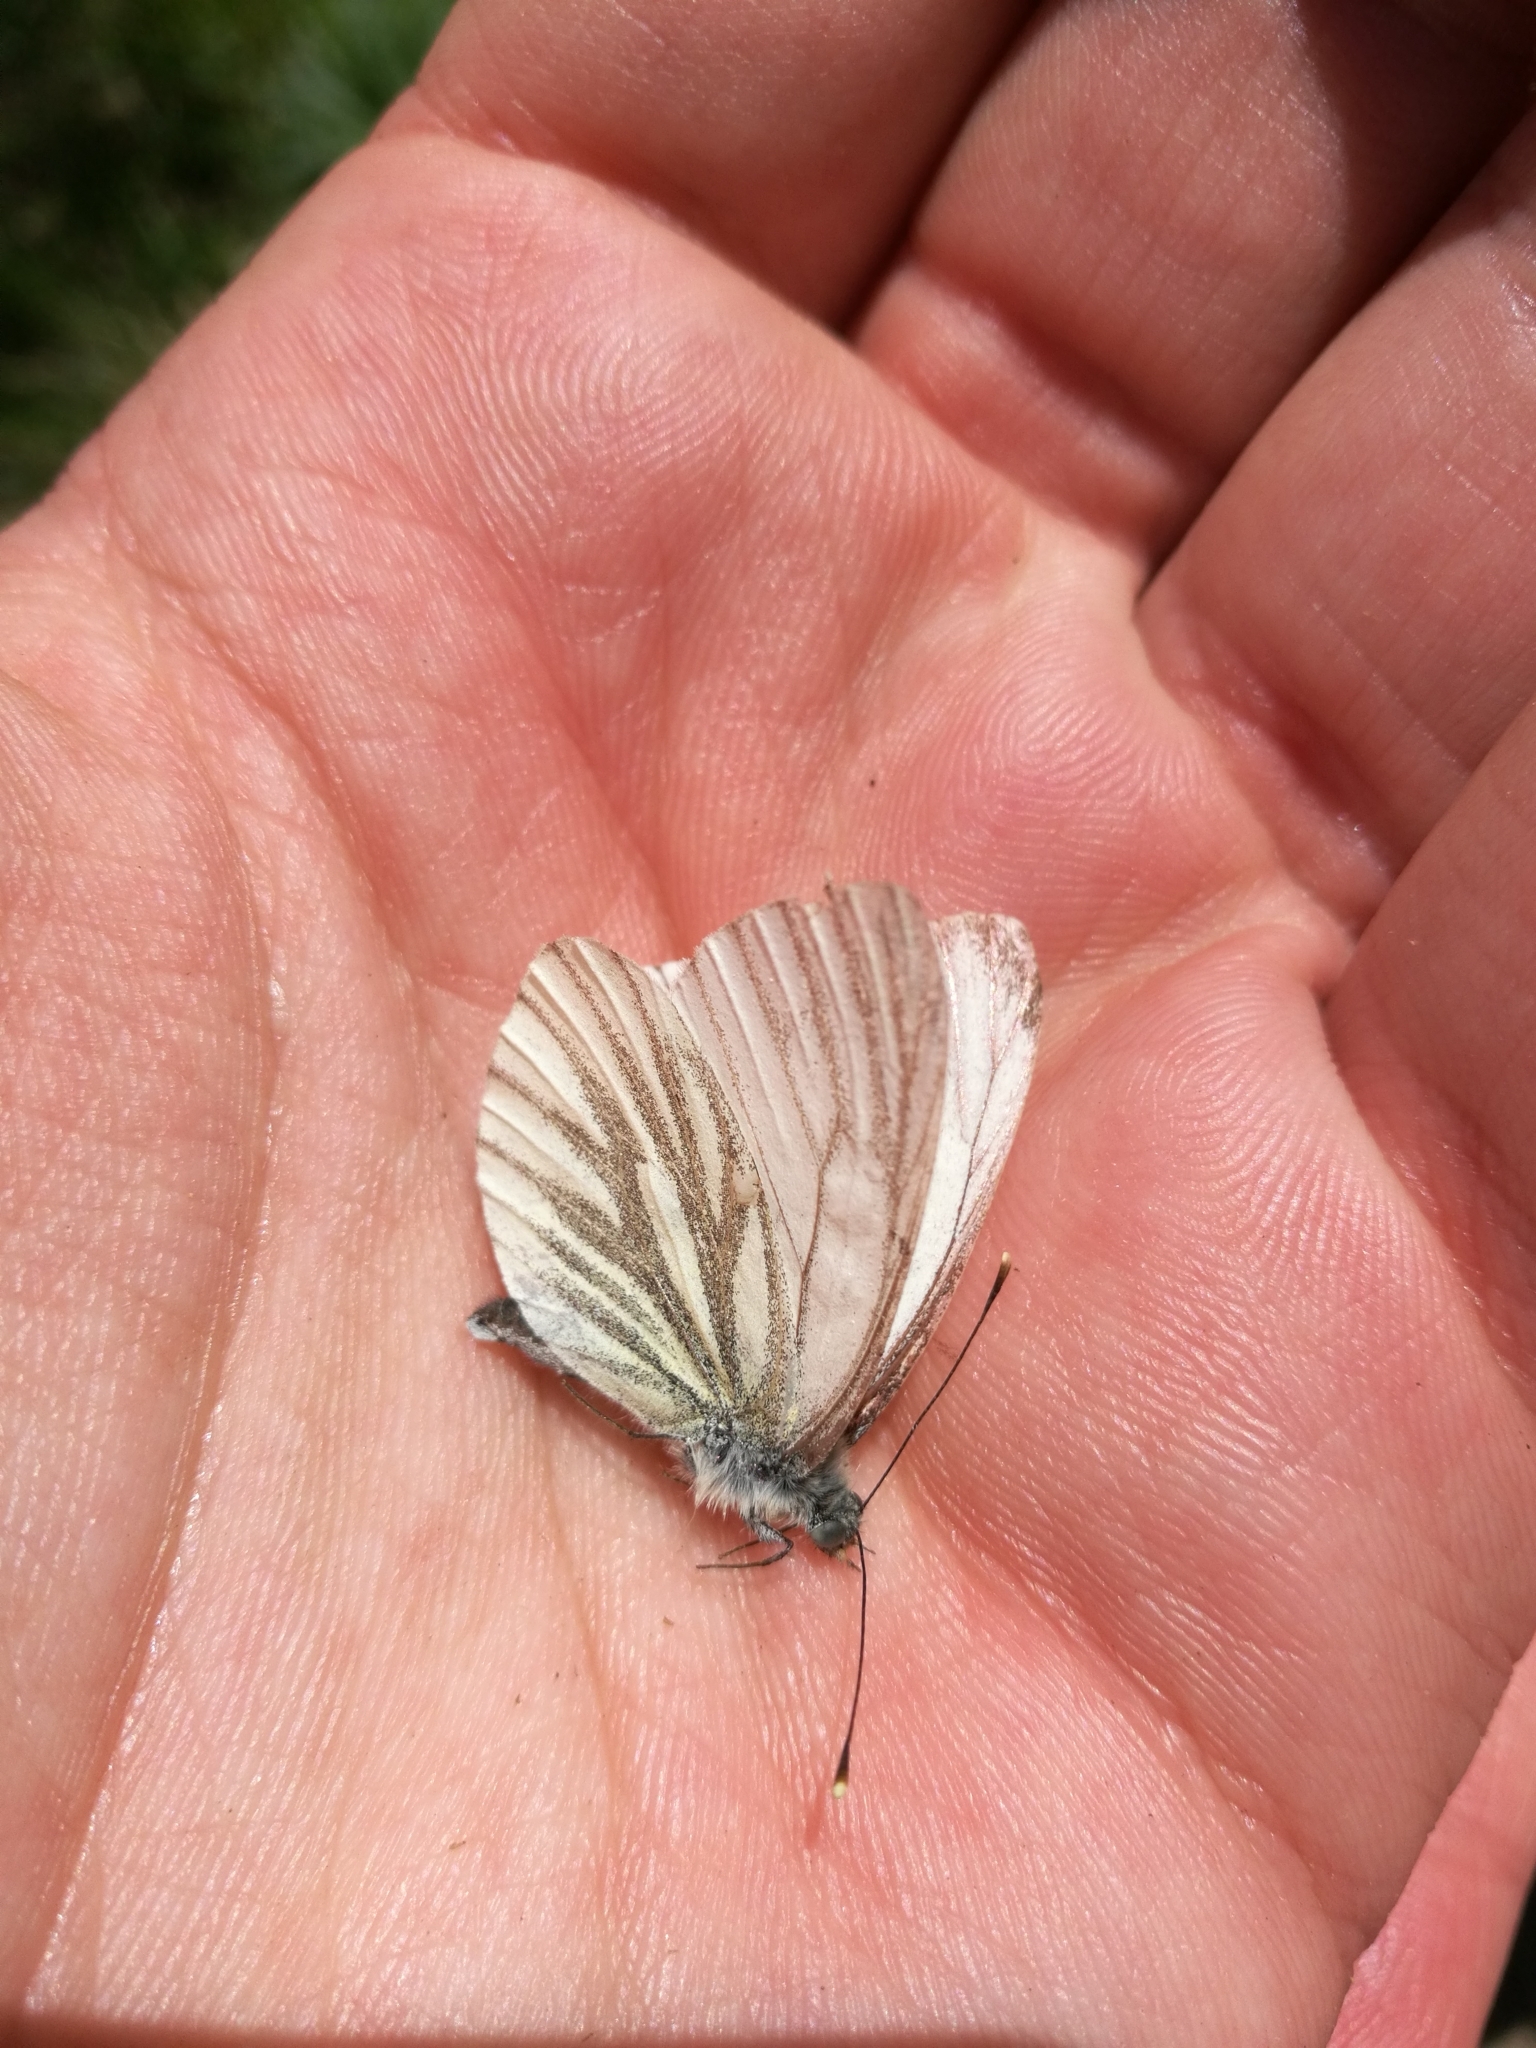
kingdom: Animalia
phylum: Arthropoda
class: Insecta
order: Lepidoptera
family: Pieridae
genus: Pieris
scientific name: Pieris napi
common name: Green-veined white
